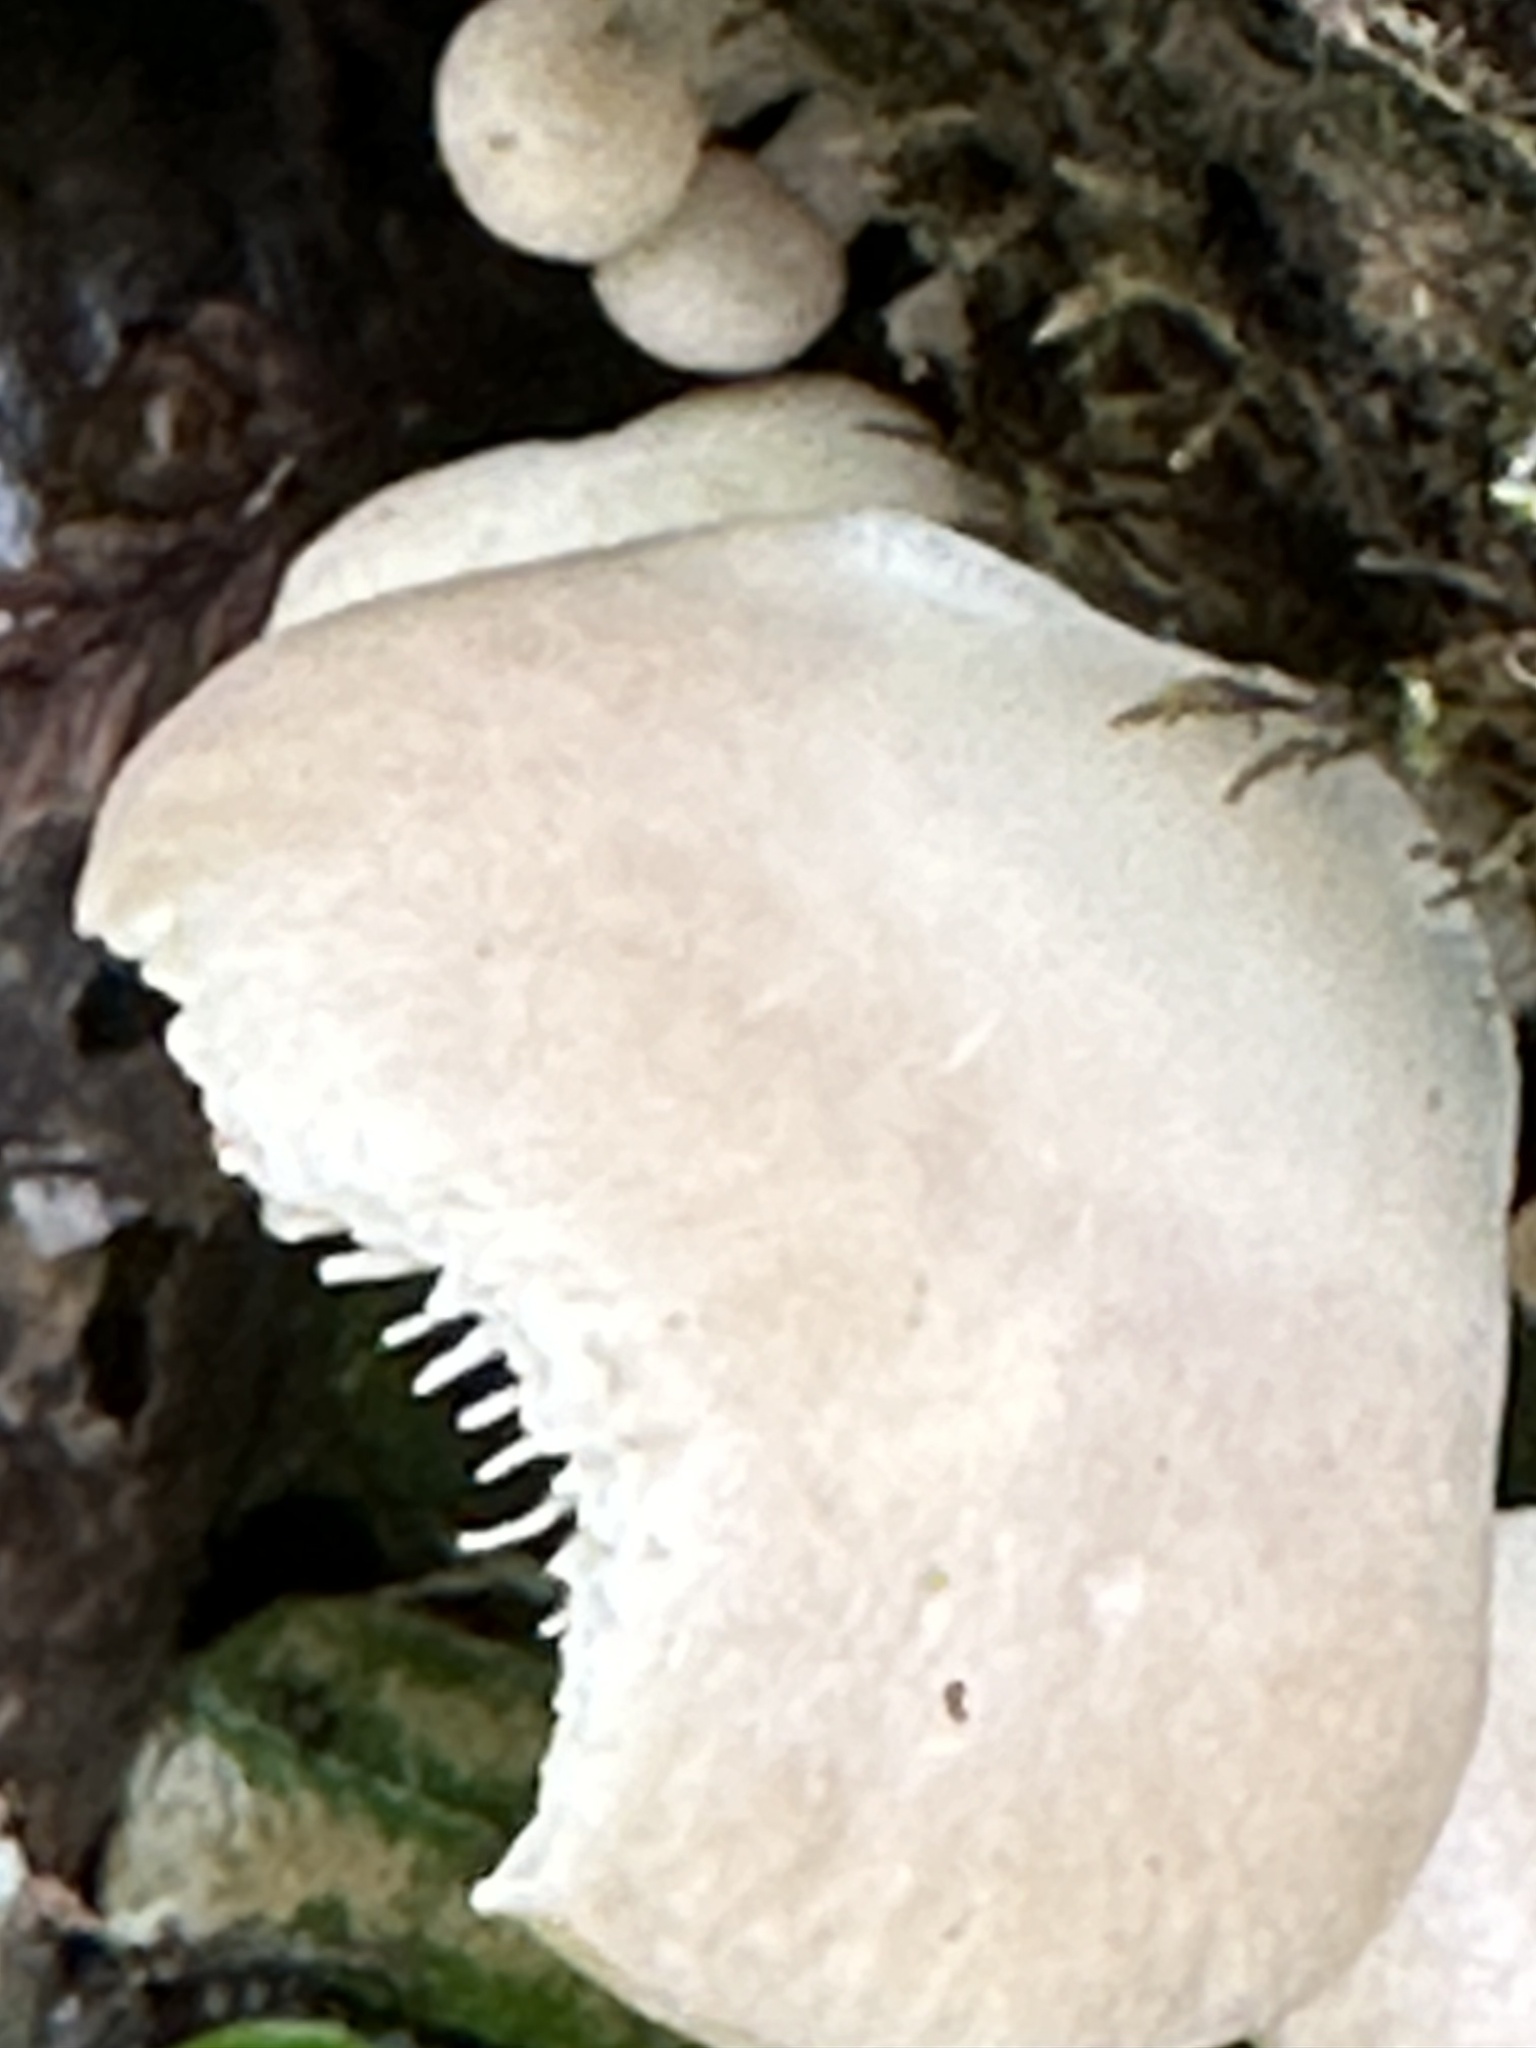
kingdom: Fungi
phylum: Basidiomycota
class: Agaricomycetes
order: Agaricales
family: Pleurotaceae
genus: Pleurotus
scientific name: Pleurotus pulmonarius
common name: Pale oyster
